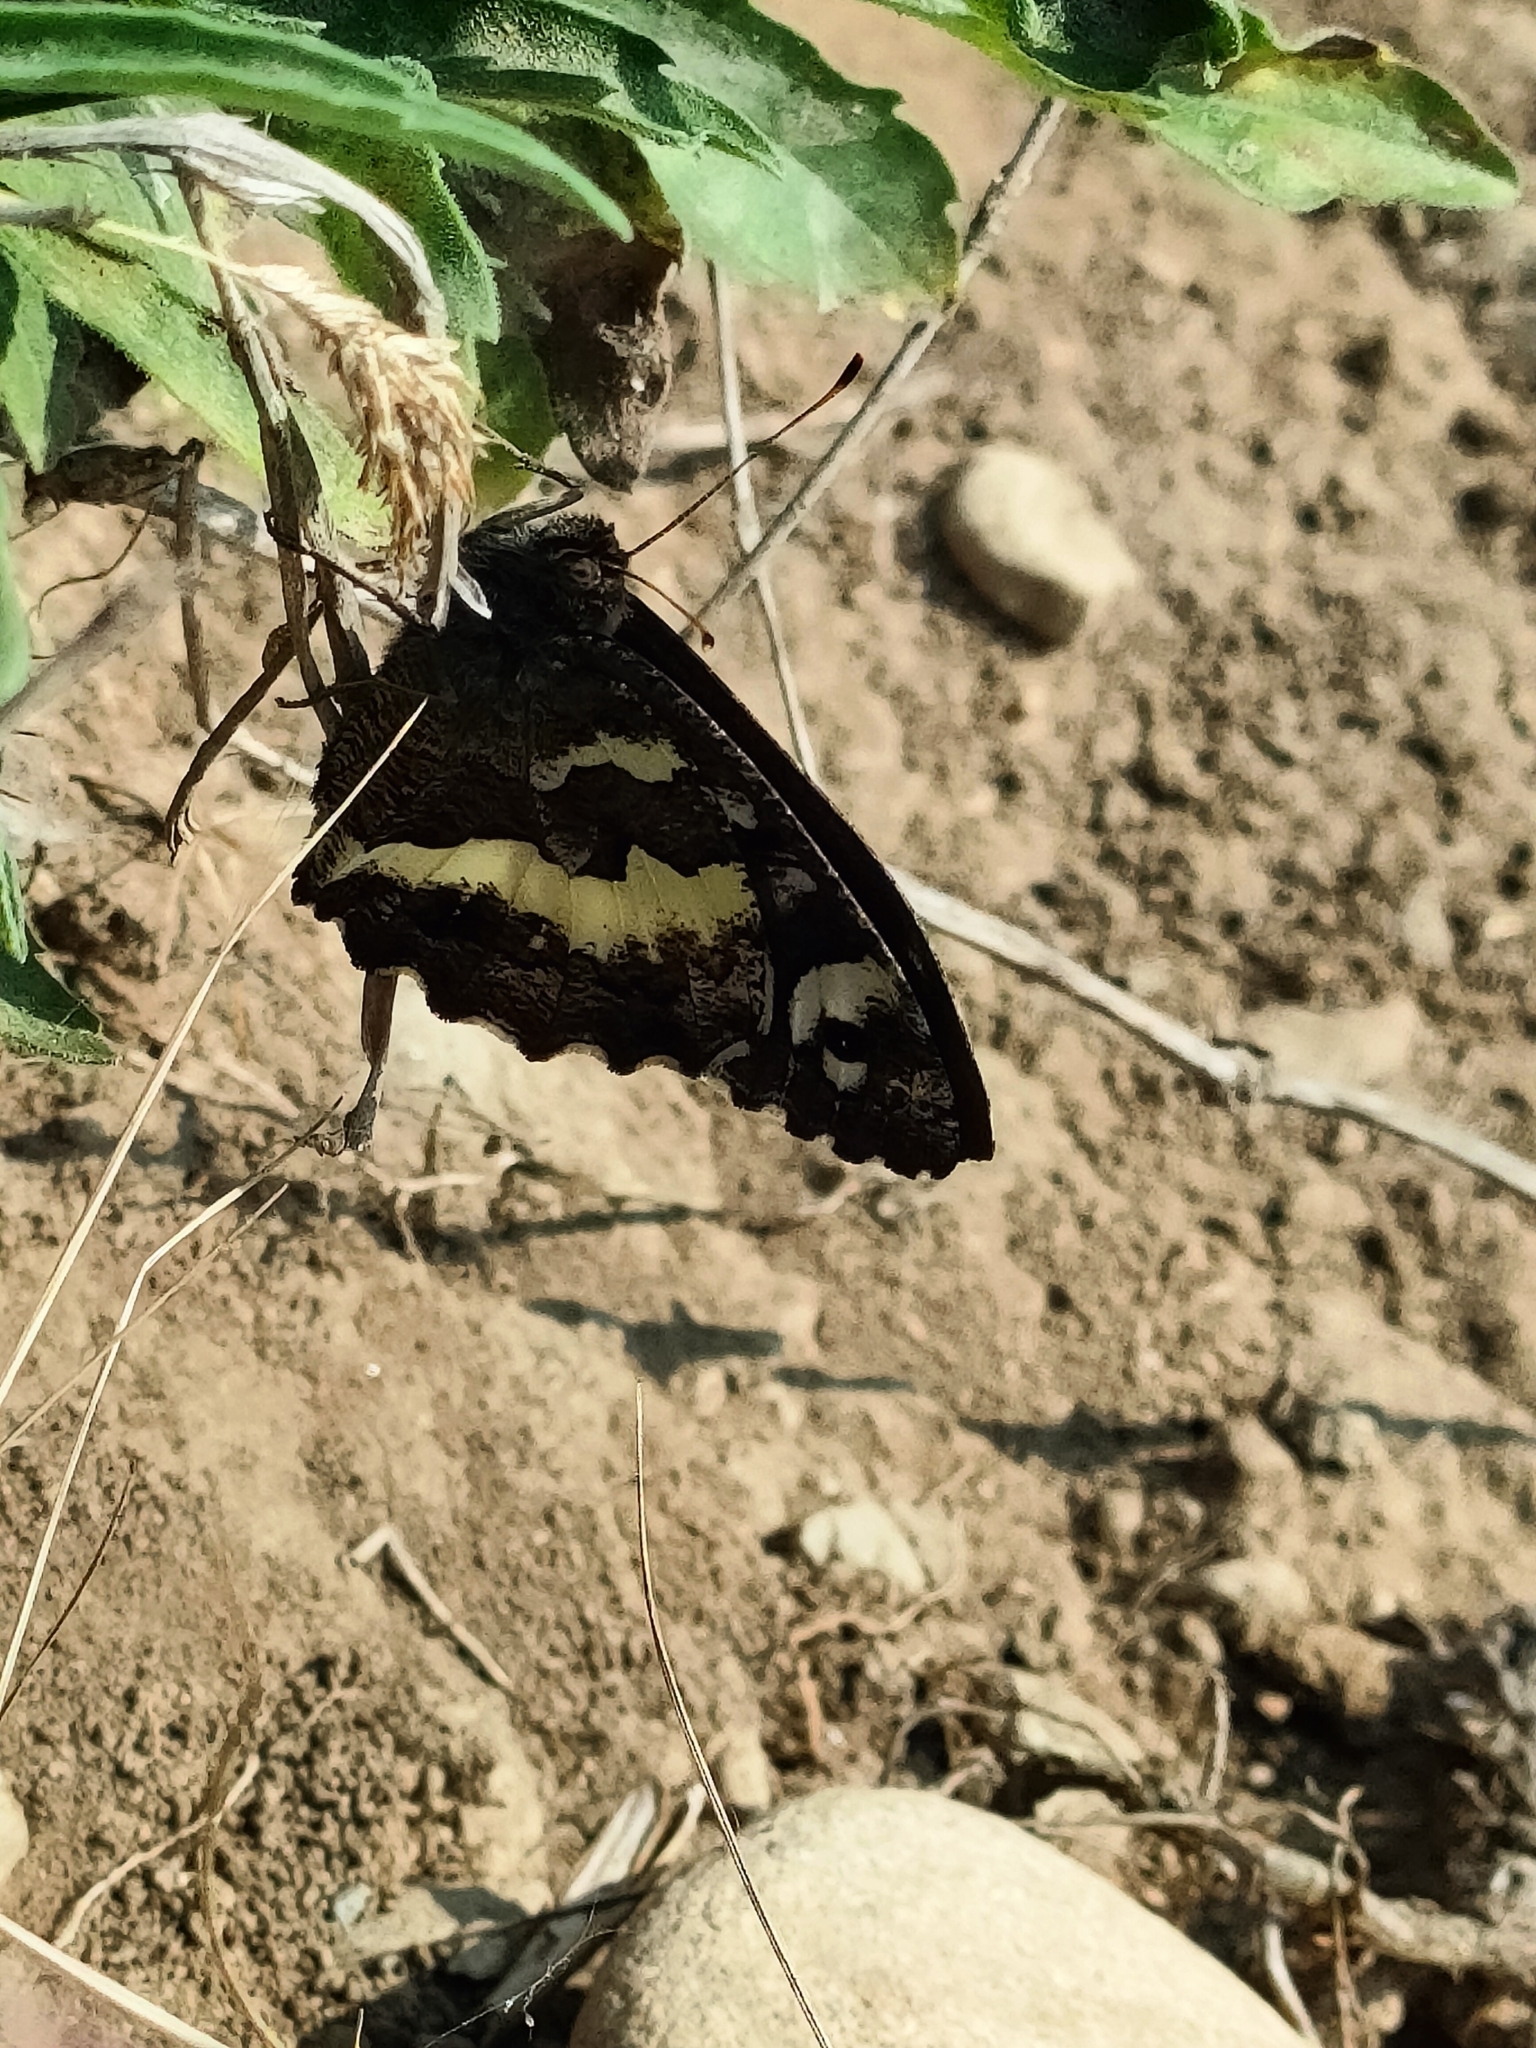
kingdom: Animalia
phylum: Arthropoda
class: Insecta
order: Lepidoptera
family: Lycaenidae
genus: Loweia
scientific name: Loweia tityrus
